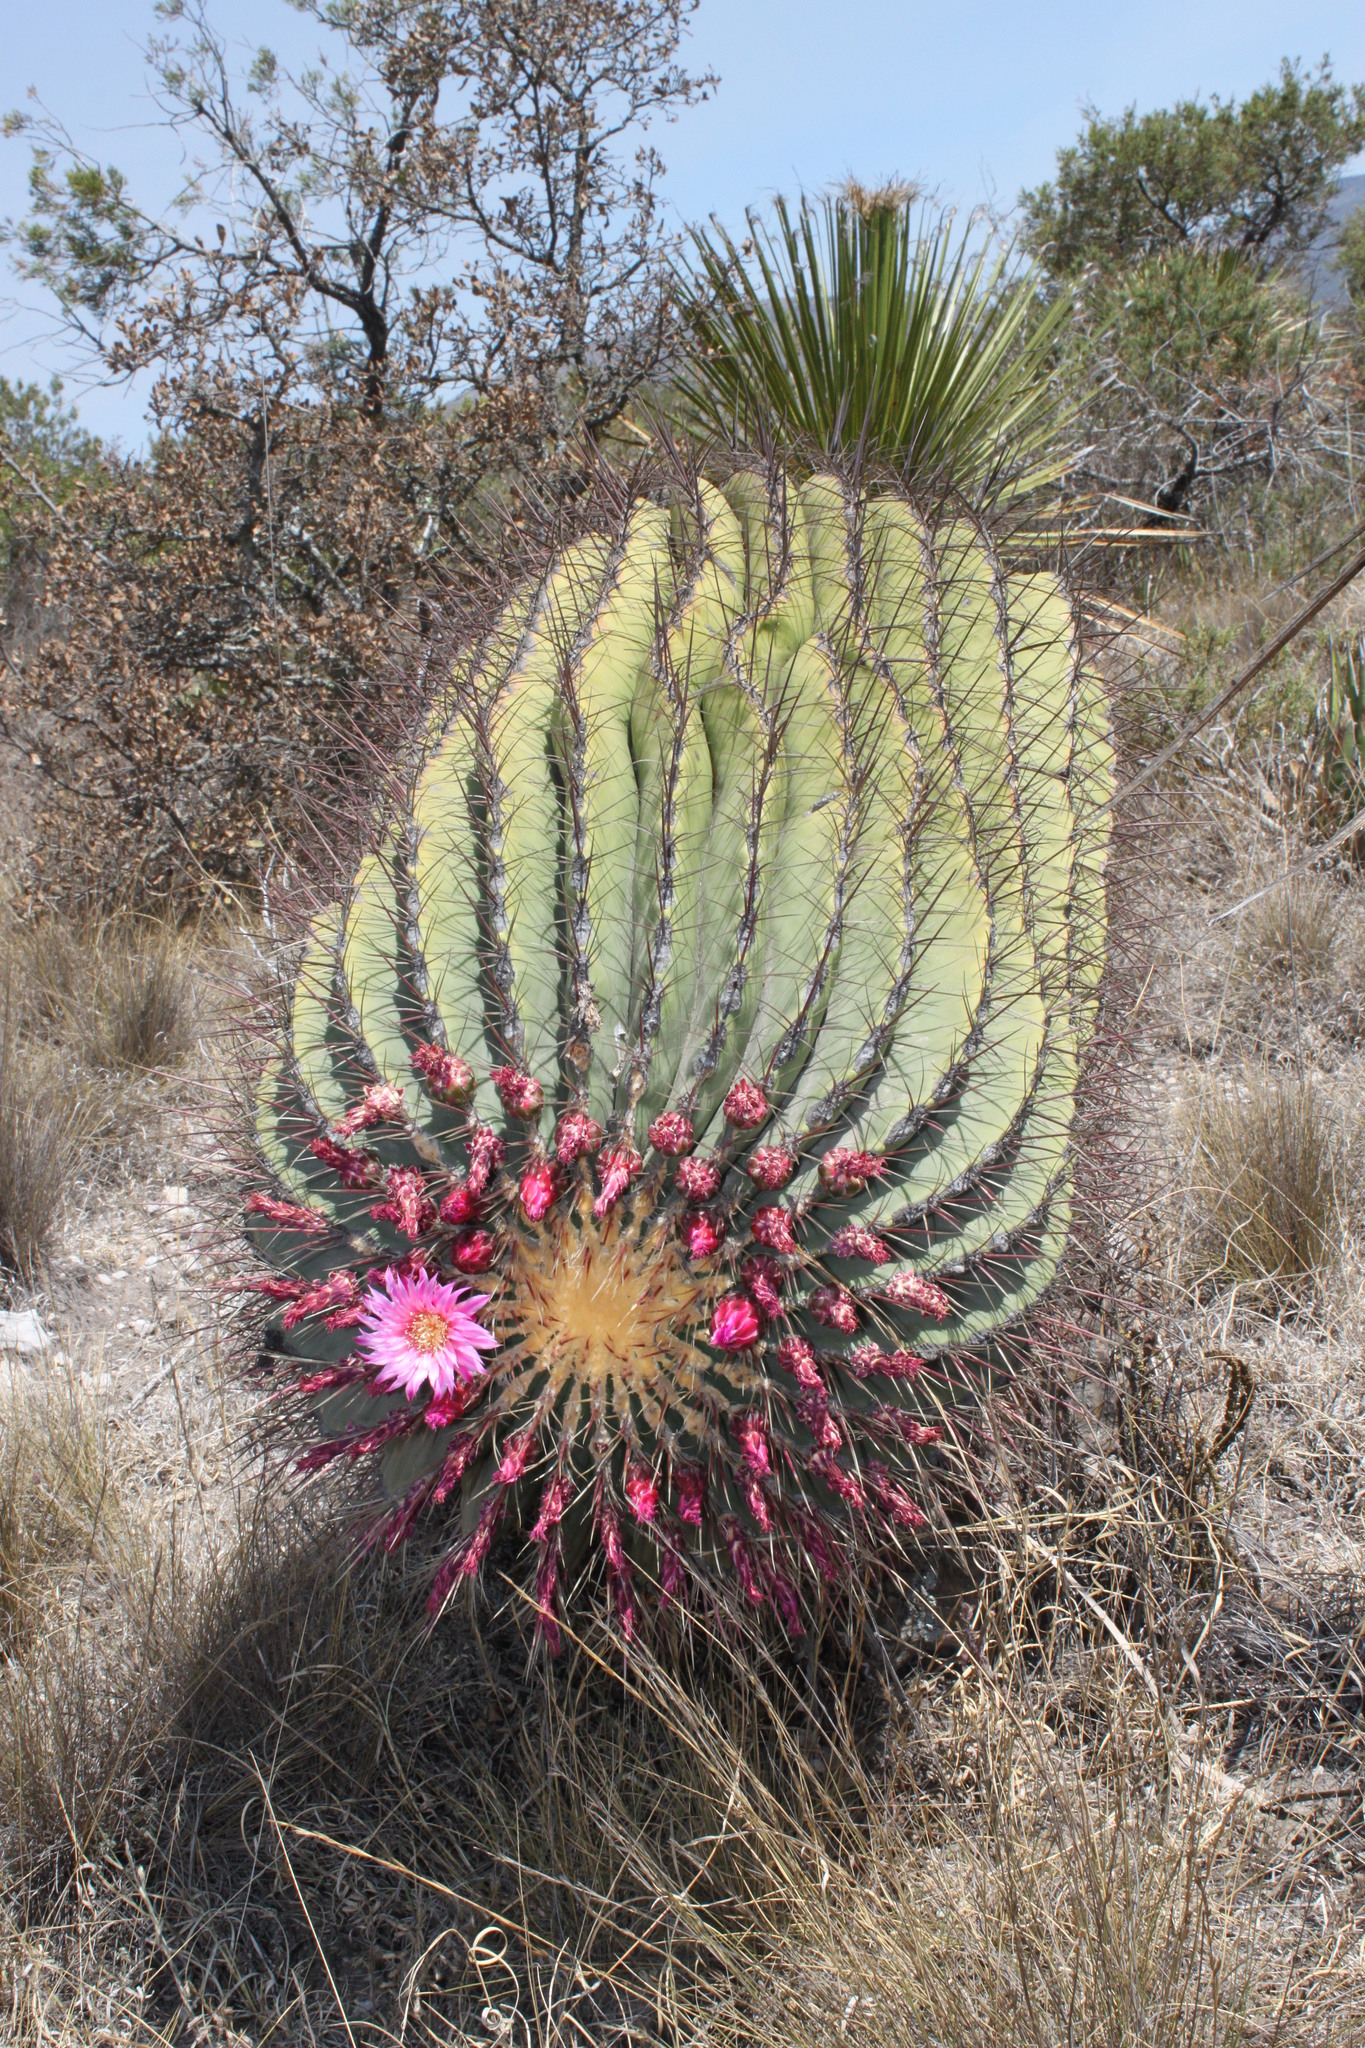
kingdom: Plantae
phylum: Tracheophyta
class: Magnoliopsida
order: Caryophyllales
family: Cactaceae
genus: Ferocactus
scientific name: Ferocactus haematacanthus
